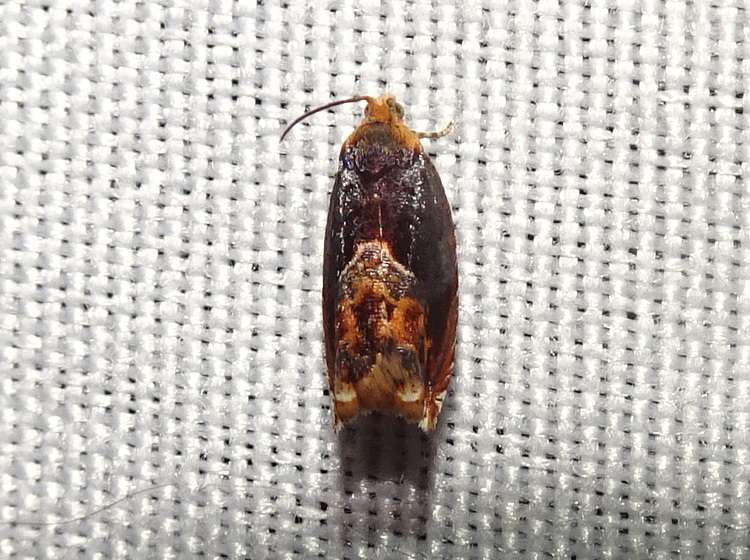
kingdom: Animalia
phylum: Arthropoda
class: Insecta
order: Lepidoptera
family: Tortricidae
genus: Ancylis
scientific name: Ancylis muricana
